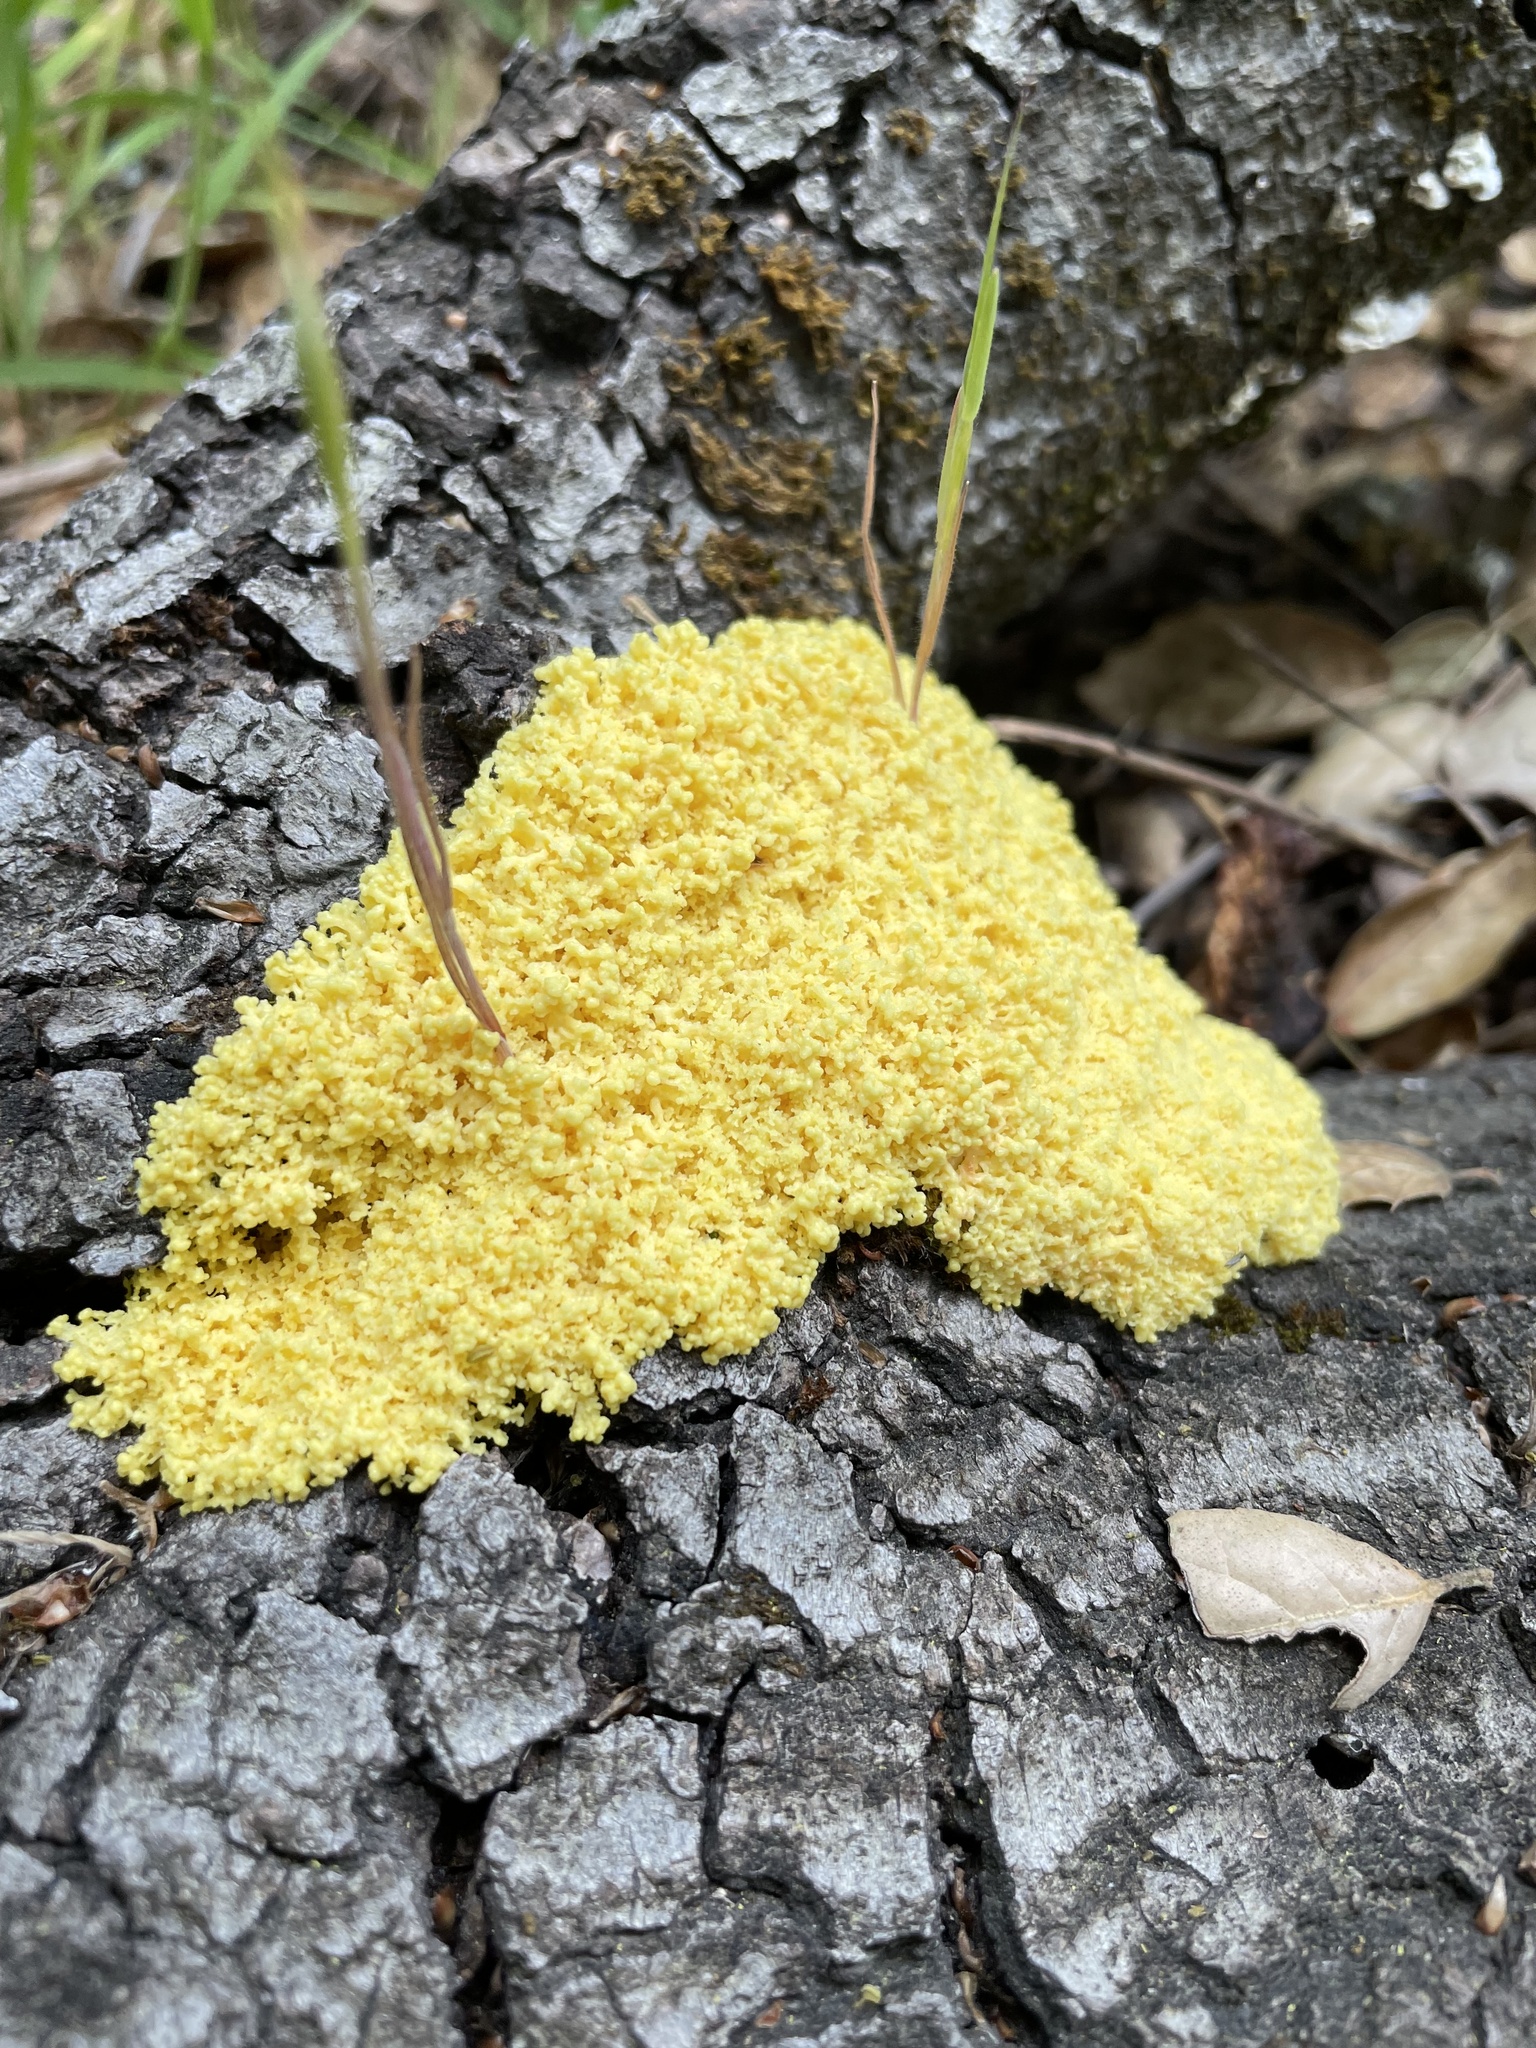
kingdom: Protozoa
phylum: Mycetozoa
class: Myxomycetes
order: Physarales
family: Physaraceae
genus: Fuligo
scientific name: Fuligo septica
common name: Dog vomit slime mold
